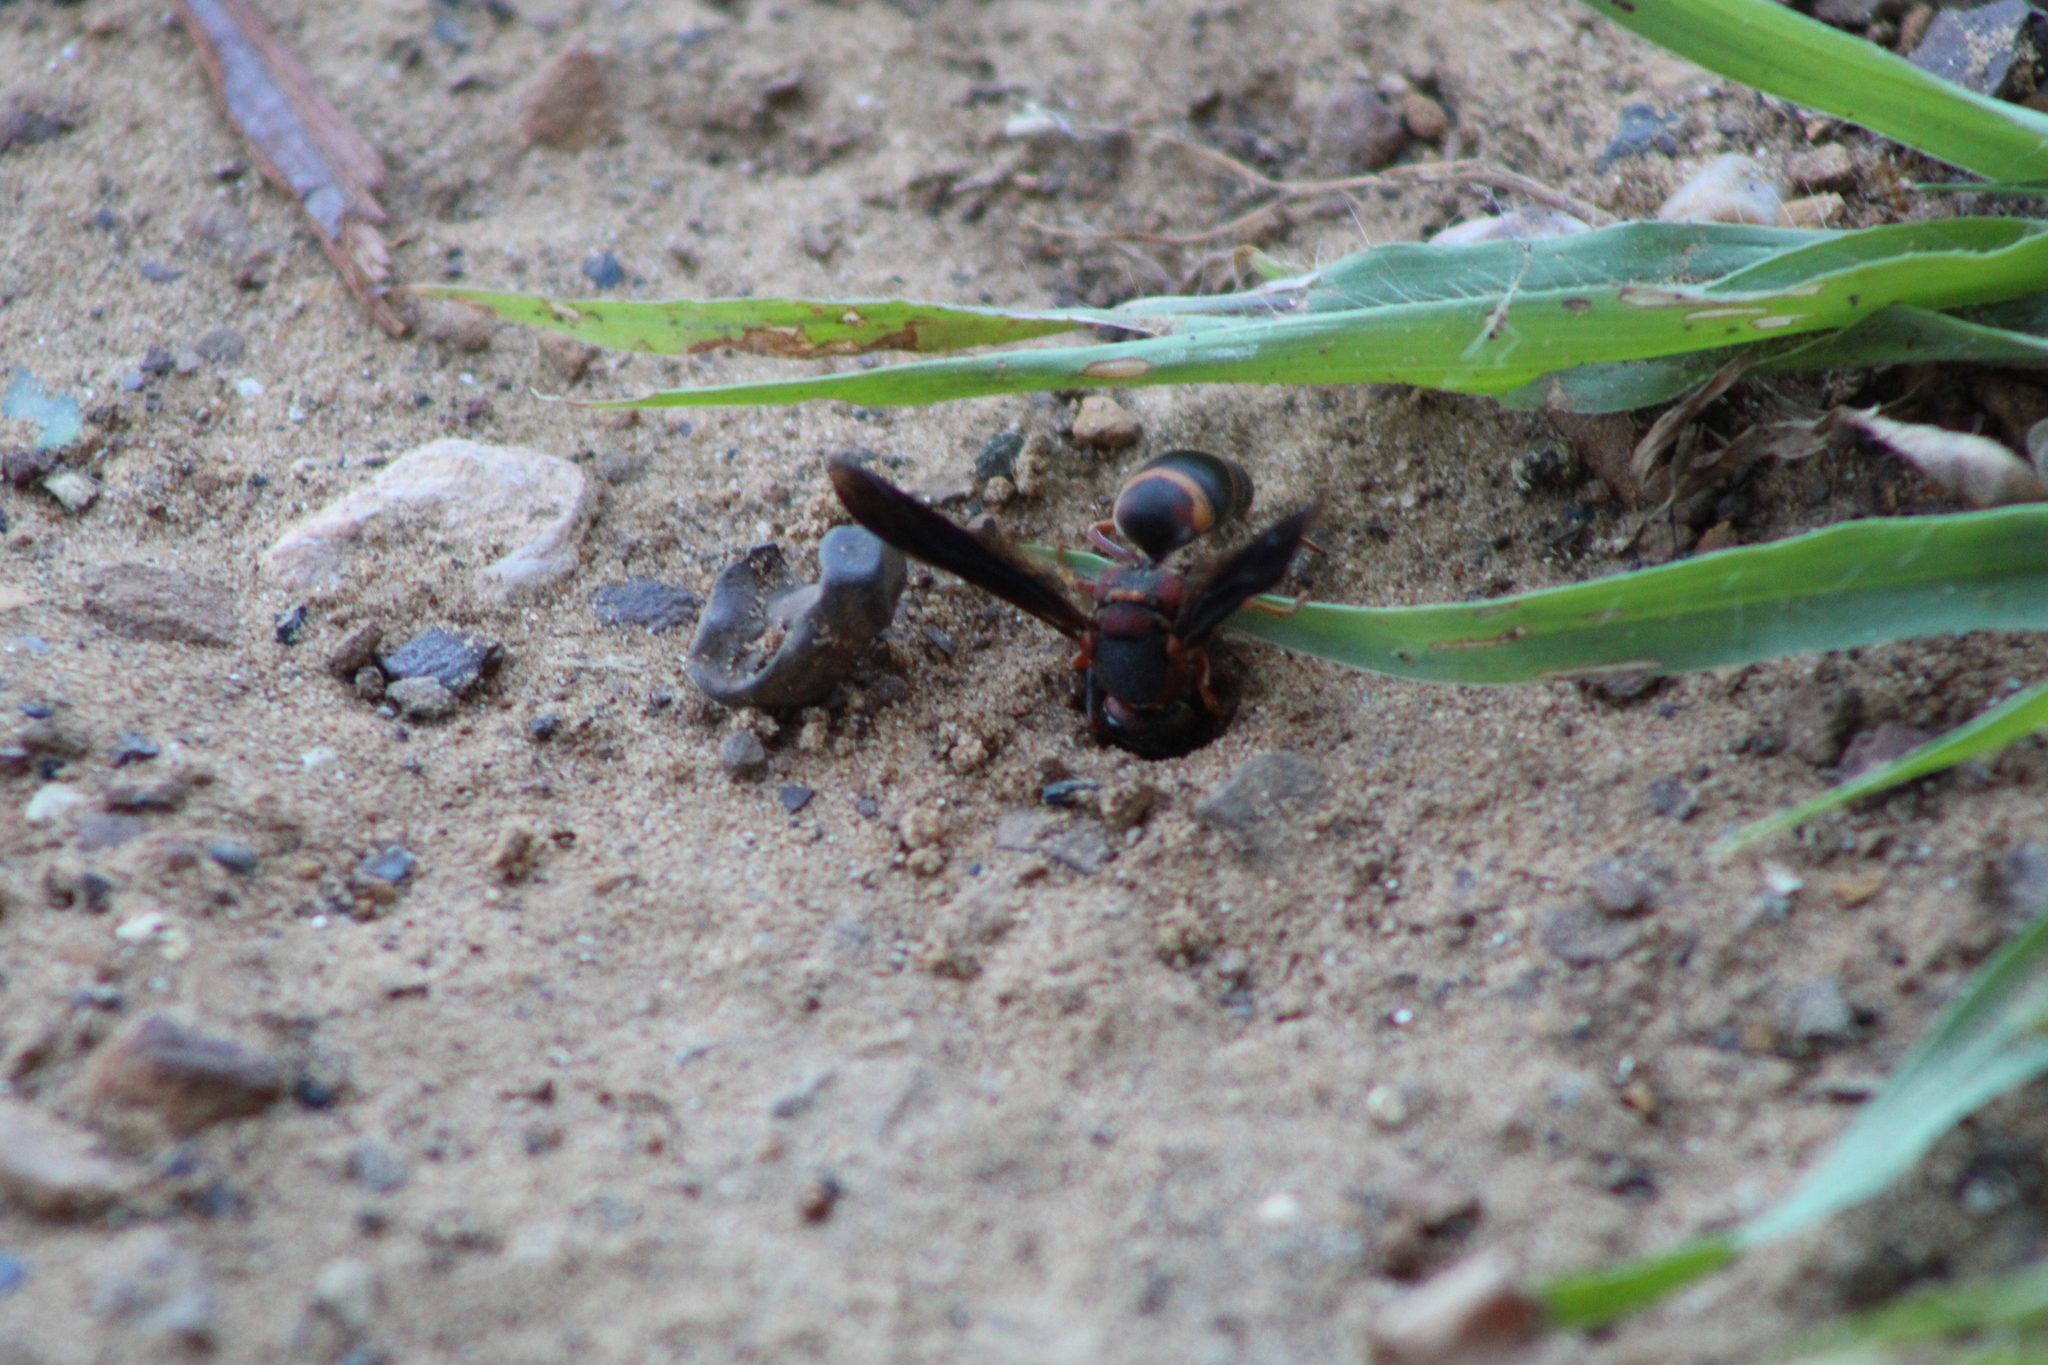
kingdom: Animalia
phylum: Arthropoda
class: Insecta
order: Hymenoptera
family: Eumenidae
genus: Euodynerus
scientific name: Euodynerus crypticus
